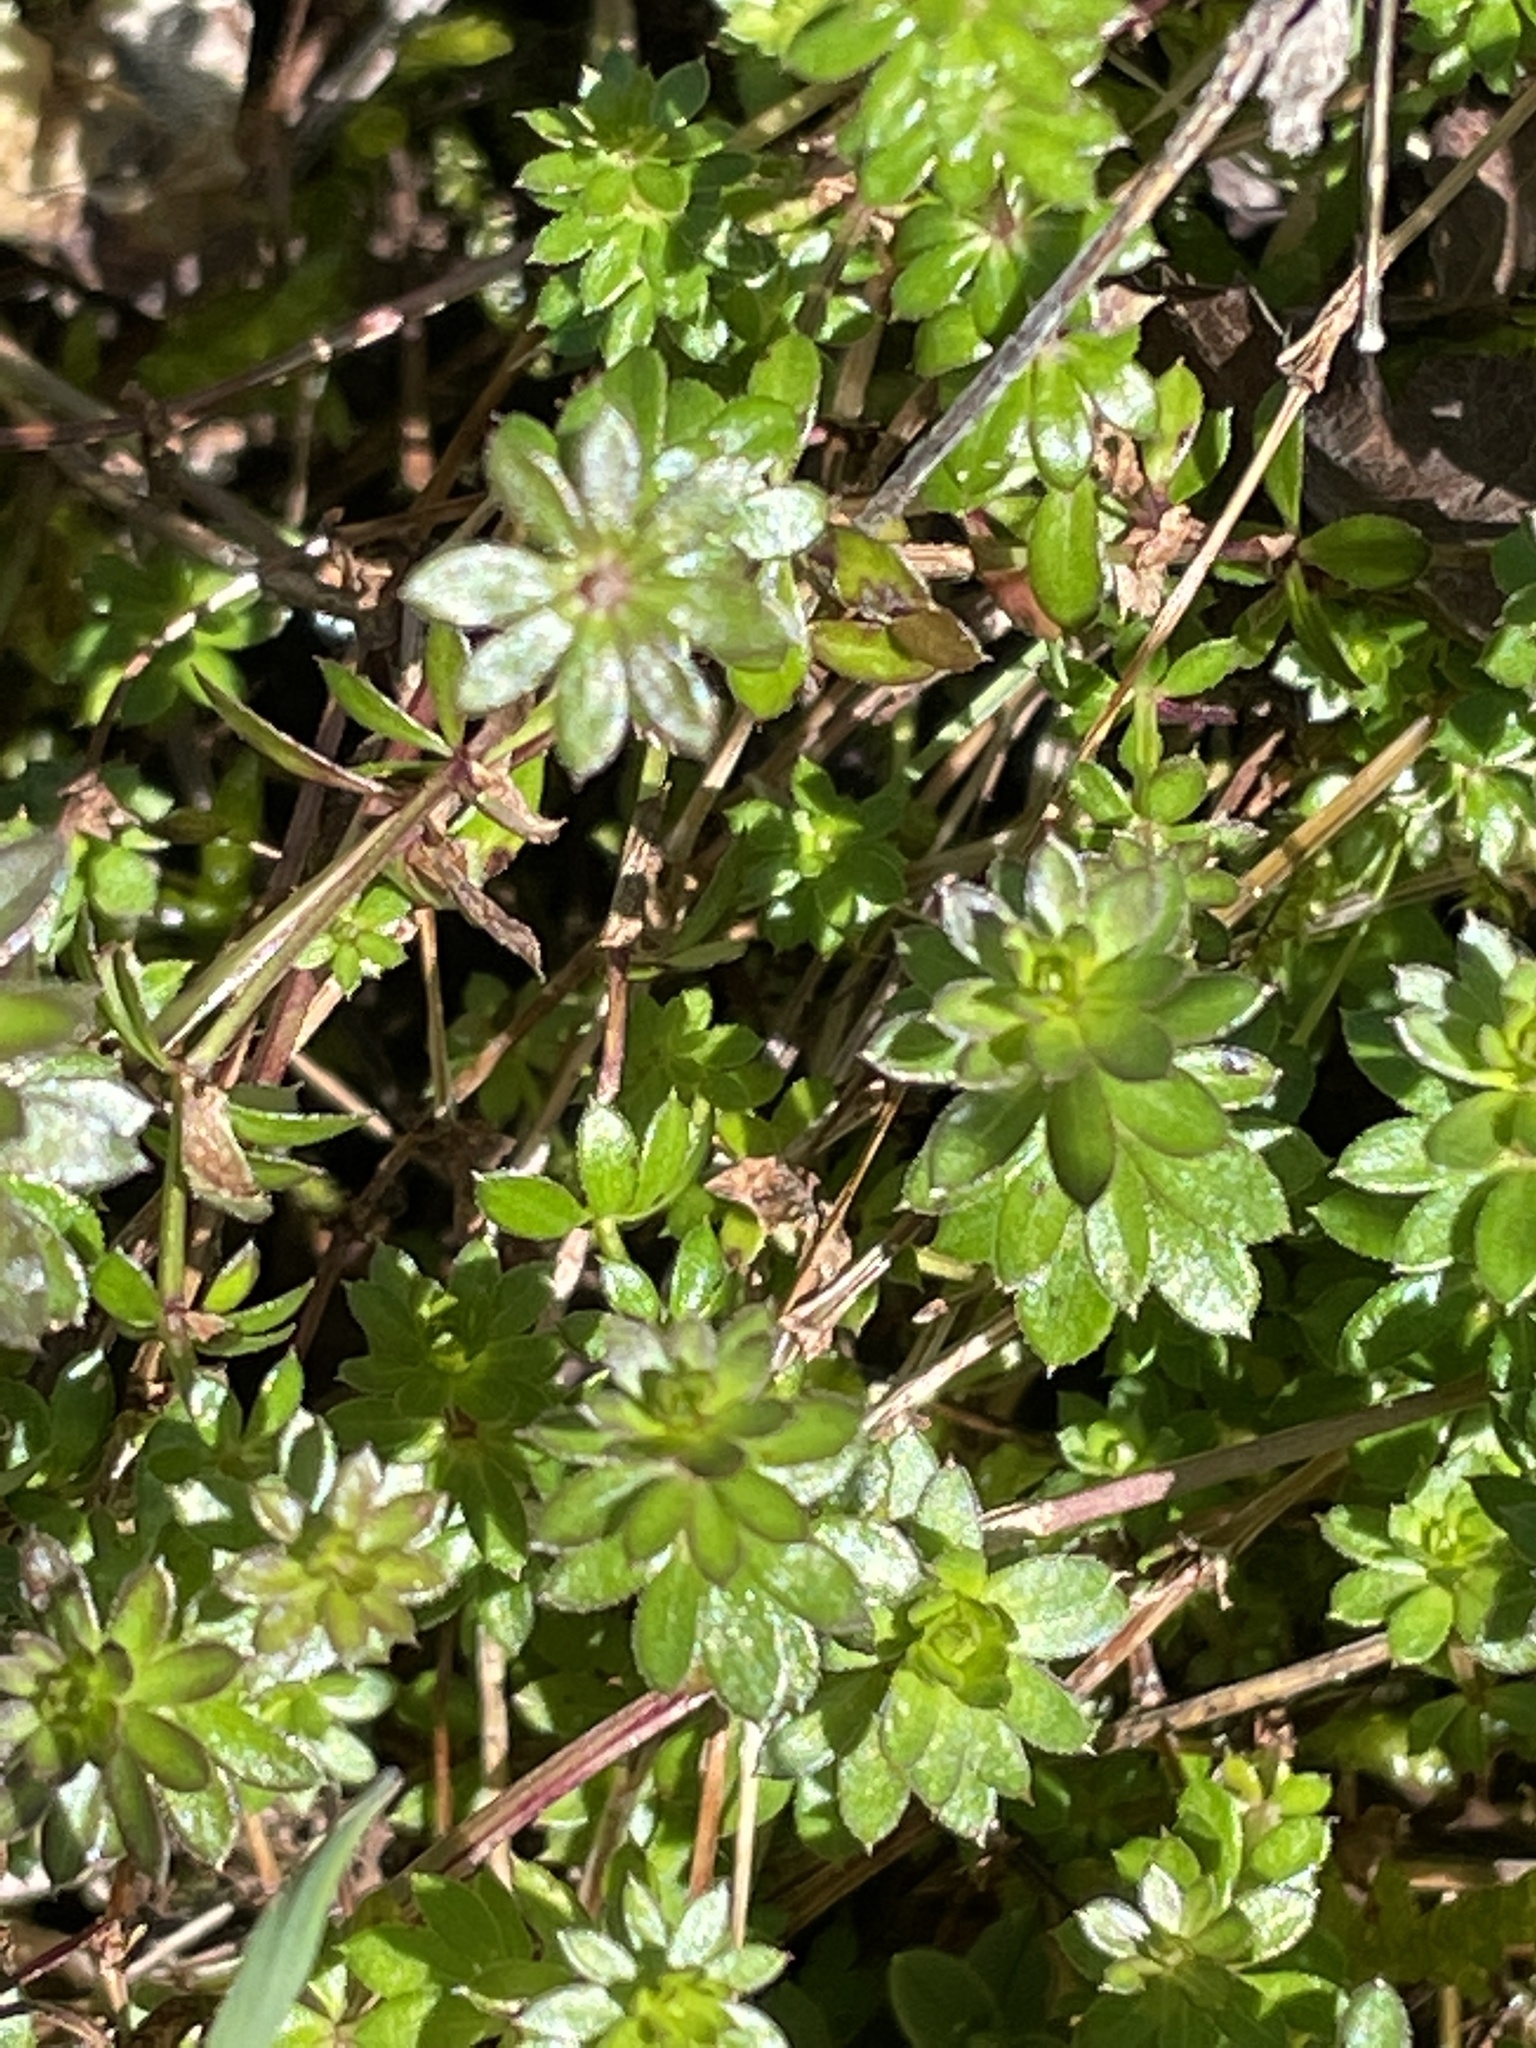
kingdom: Plantae
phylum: Tracheophyta
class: Magnoliopsida
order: Gentianales
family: Rubiaceae
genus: Galium
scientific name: Galium mollugo
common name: Hedge bedstraw
